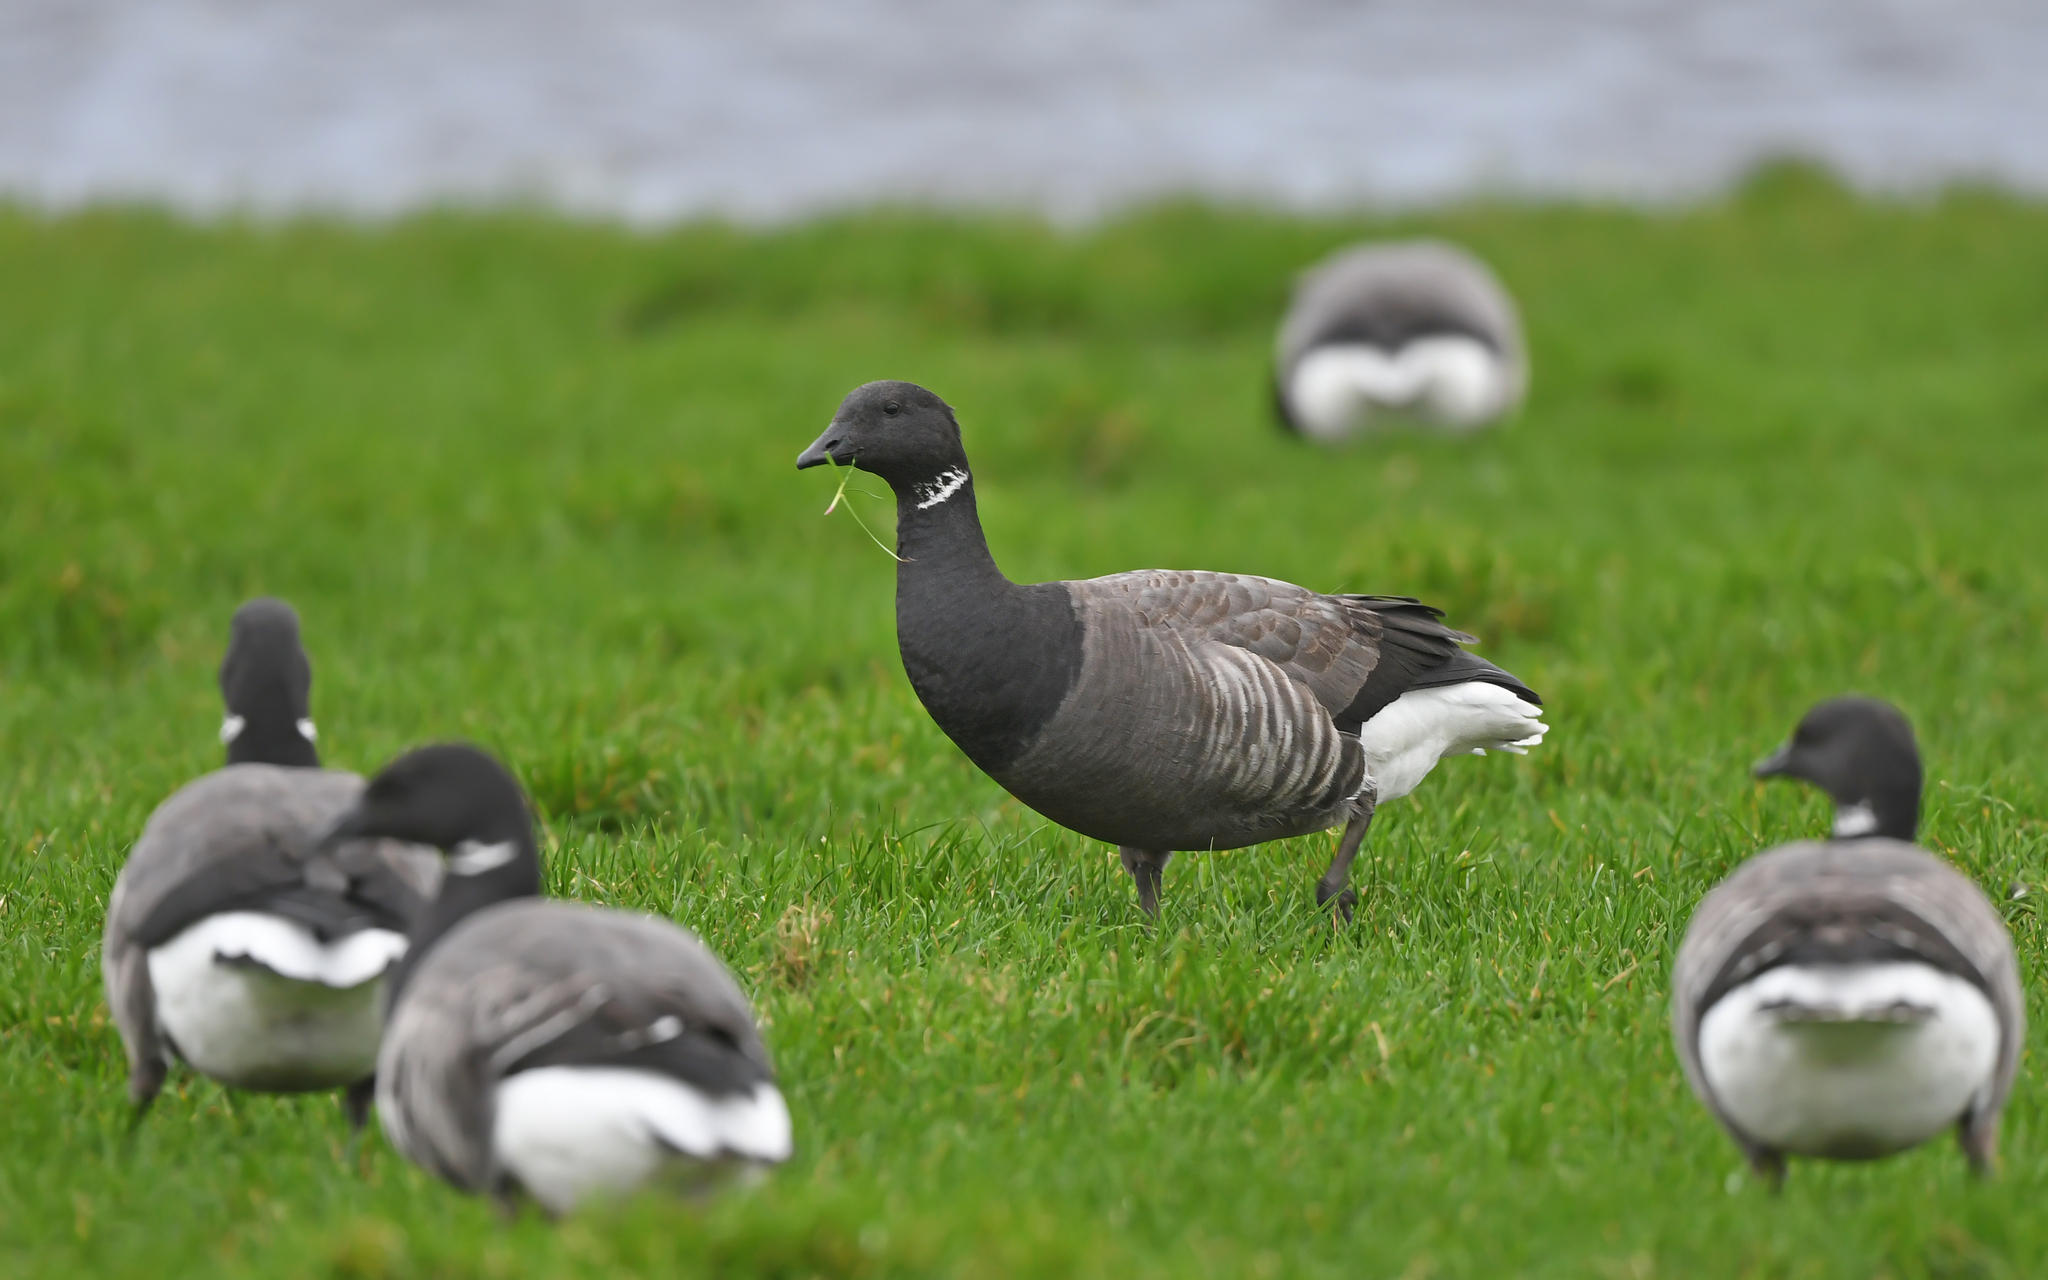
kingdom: Animalia
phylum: Chordata
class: Aves
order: Anseriformes
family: Anatidae
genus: Branta
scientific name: Branta bernicla
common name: Brant goose
